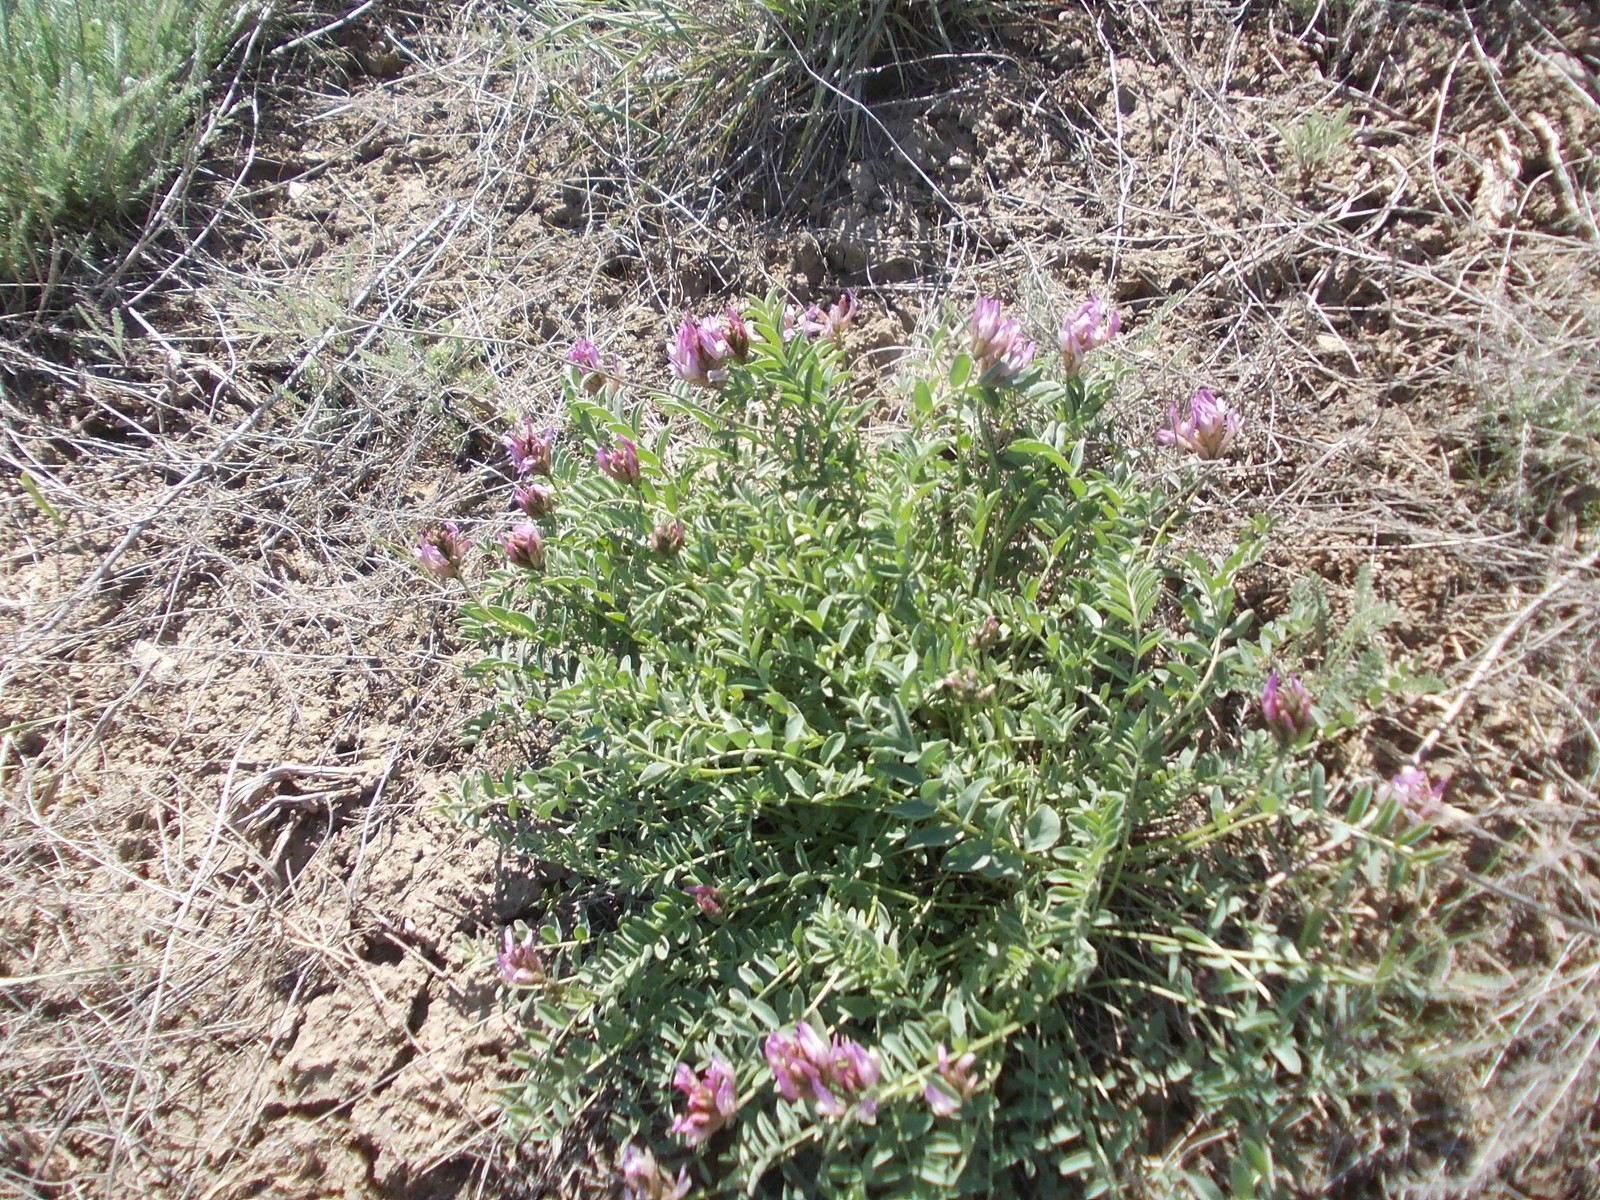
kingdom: Plantae
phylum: Tracheophyta
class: Magnoliopsida
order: Fabales
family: Fabaceae
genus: Astragalus
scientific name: Astragalus physodes
